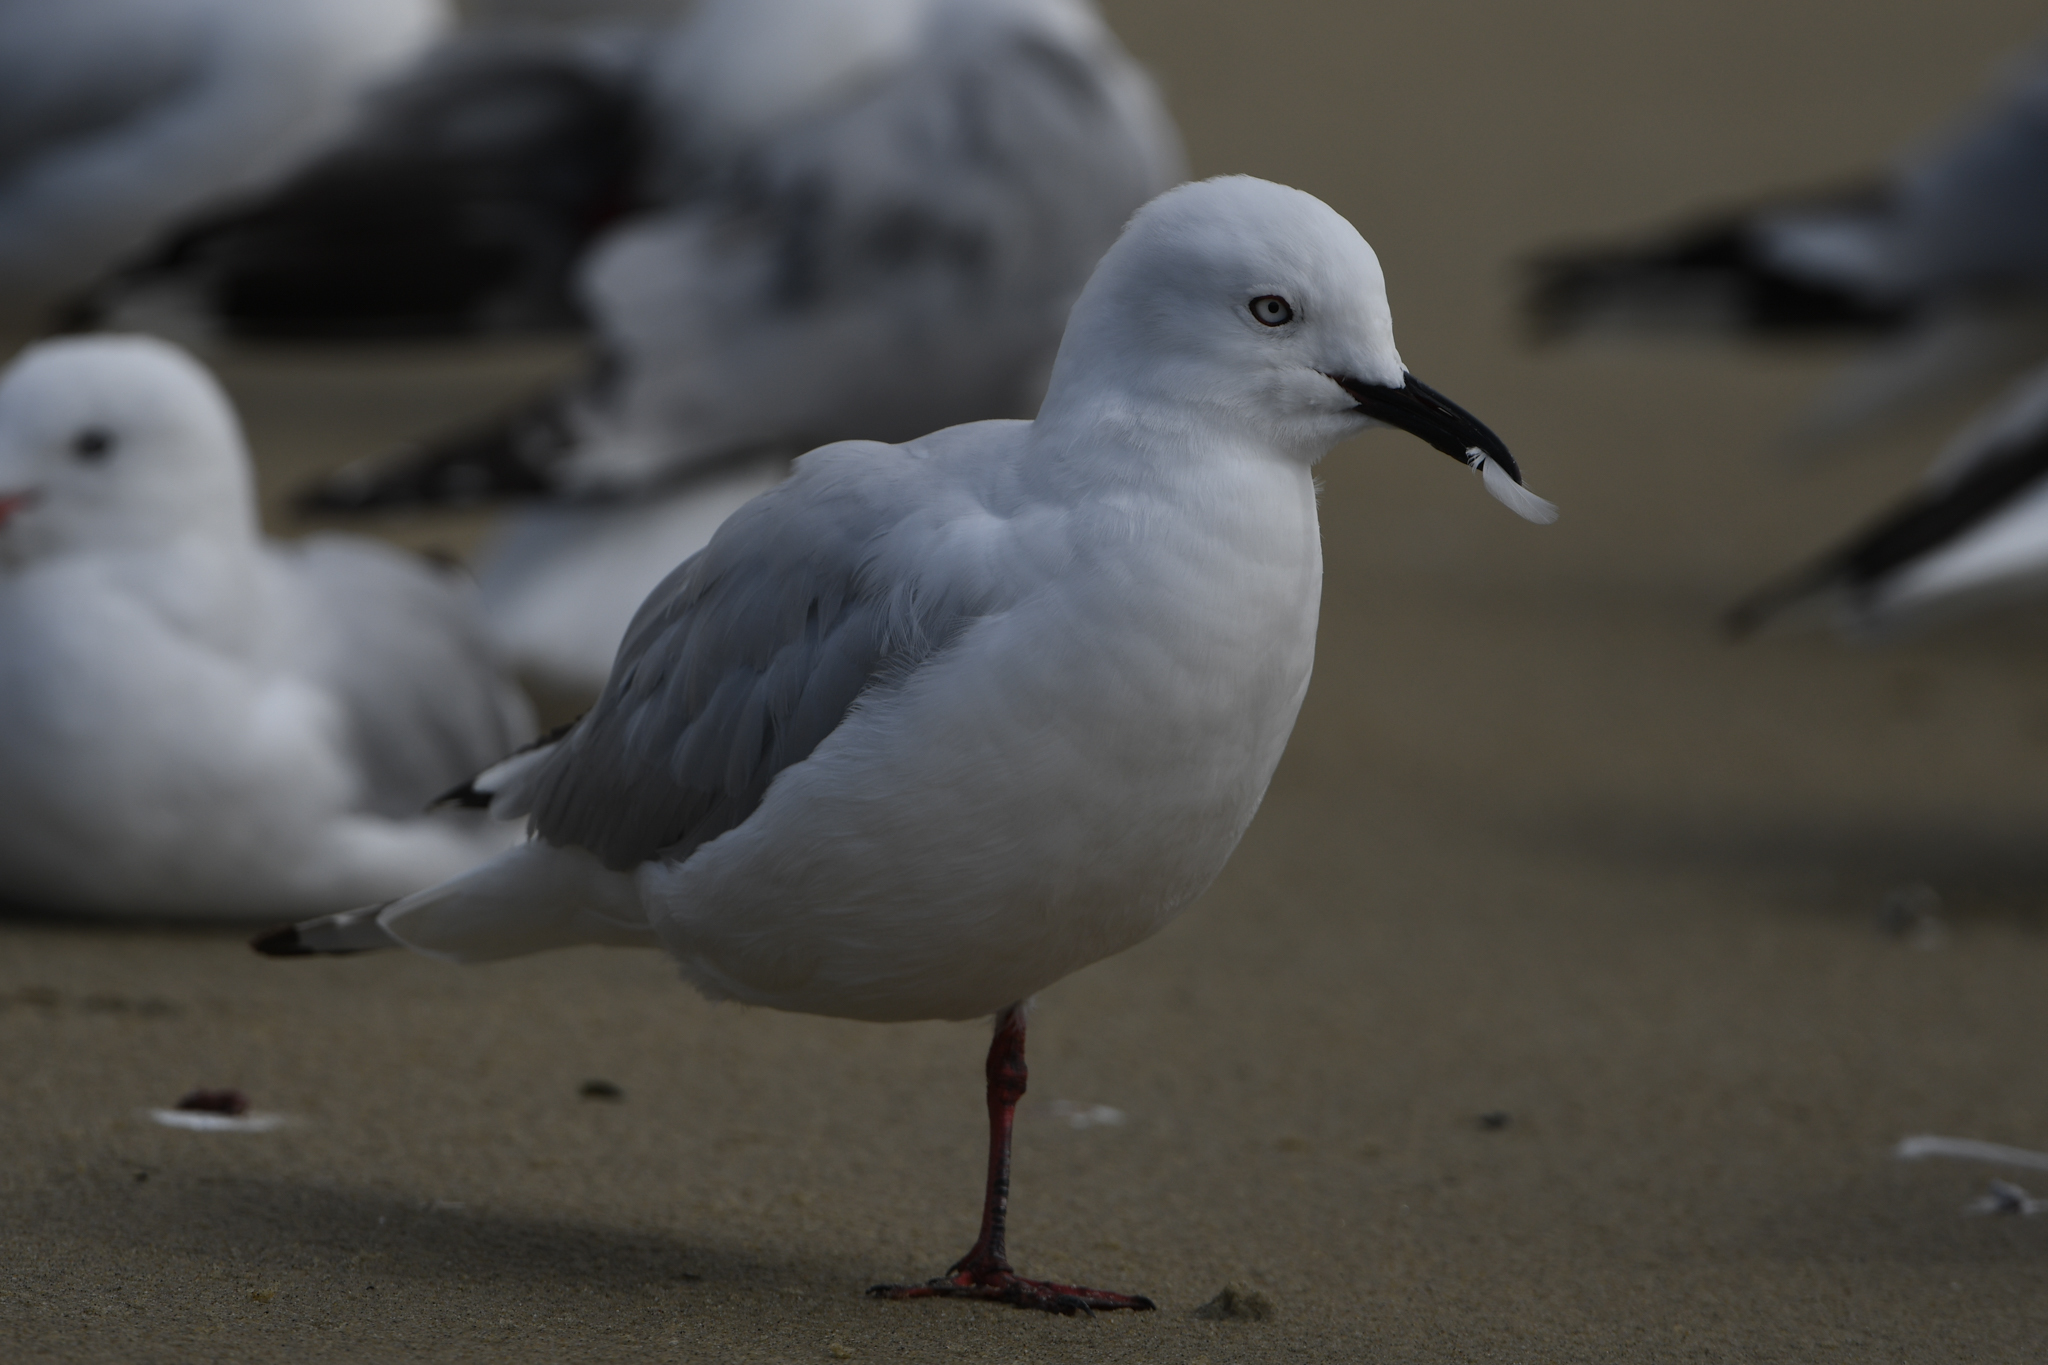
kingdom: Animalia
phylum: Chordata
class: Aves
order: Charadriiformes
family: Laridae
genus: Chroicocephalus
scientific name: Chroicocephalus bulleri
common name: Black-billed gull
